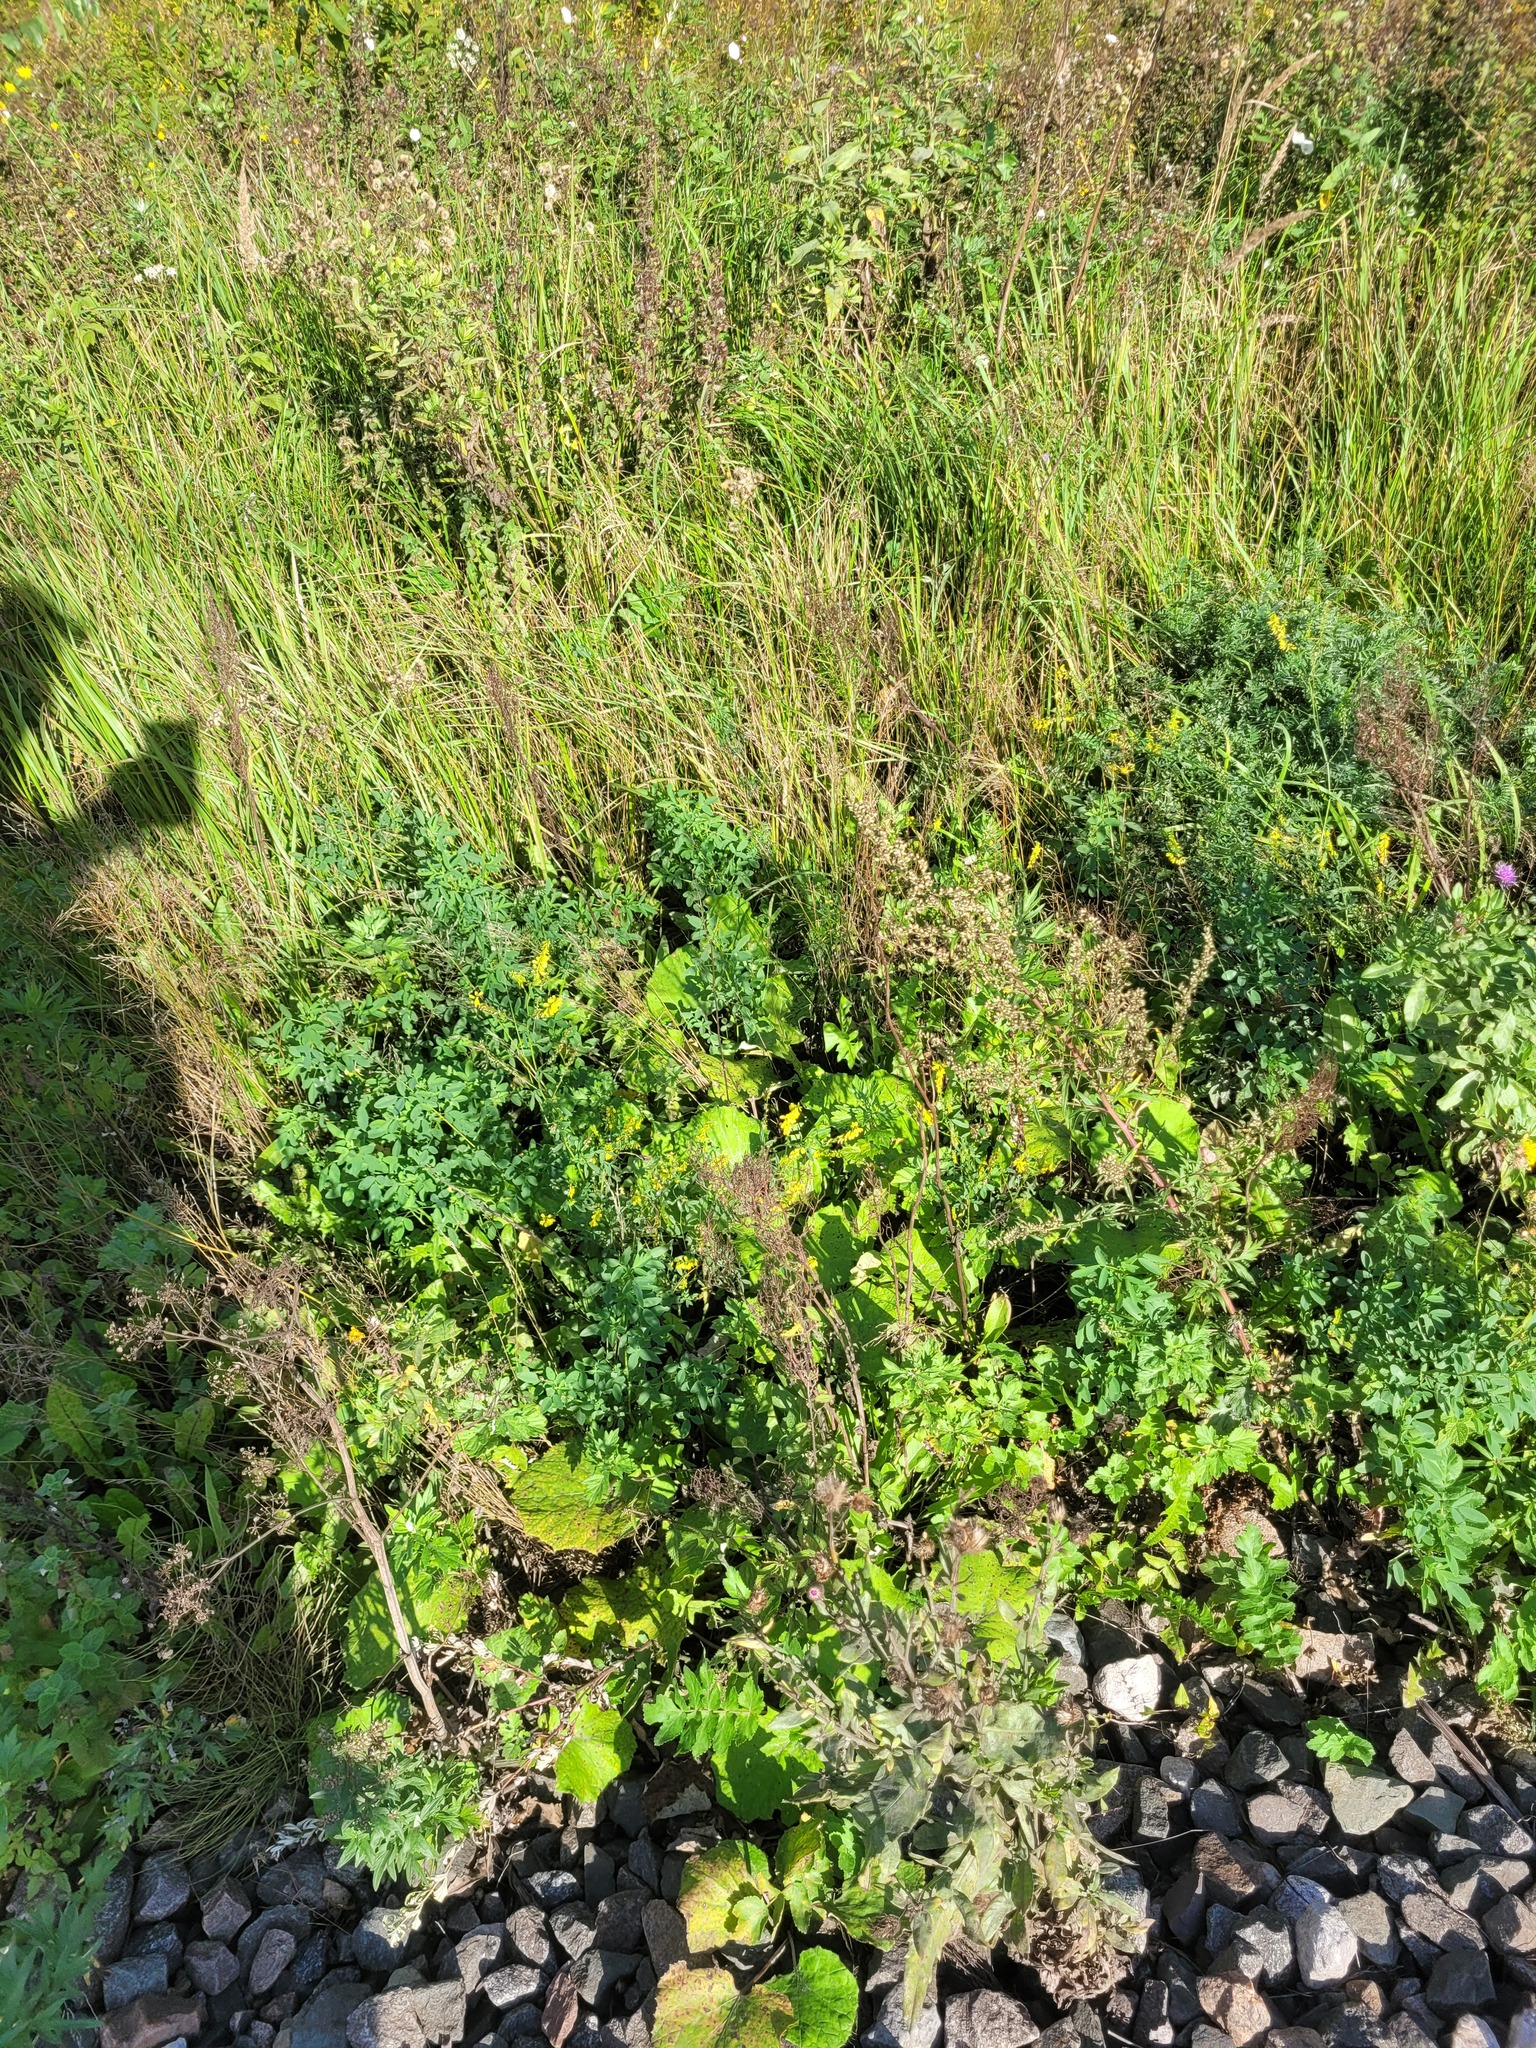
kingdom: Plantae
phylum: Tracheophyta
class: Magnoliopsida
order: Caryophyllales
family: Polygonaceae
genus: Rumex
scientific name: Rumex thyrsiflorus
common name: Garden sorrel
